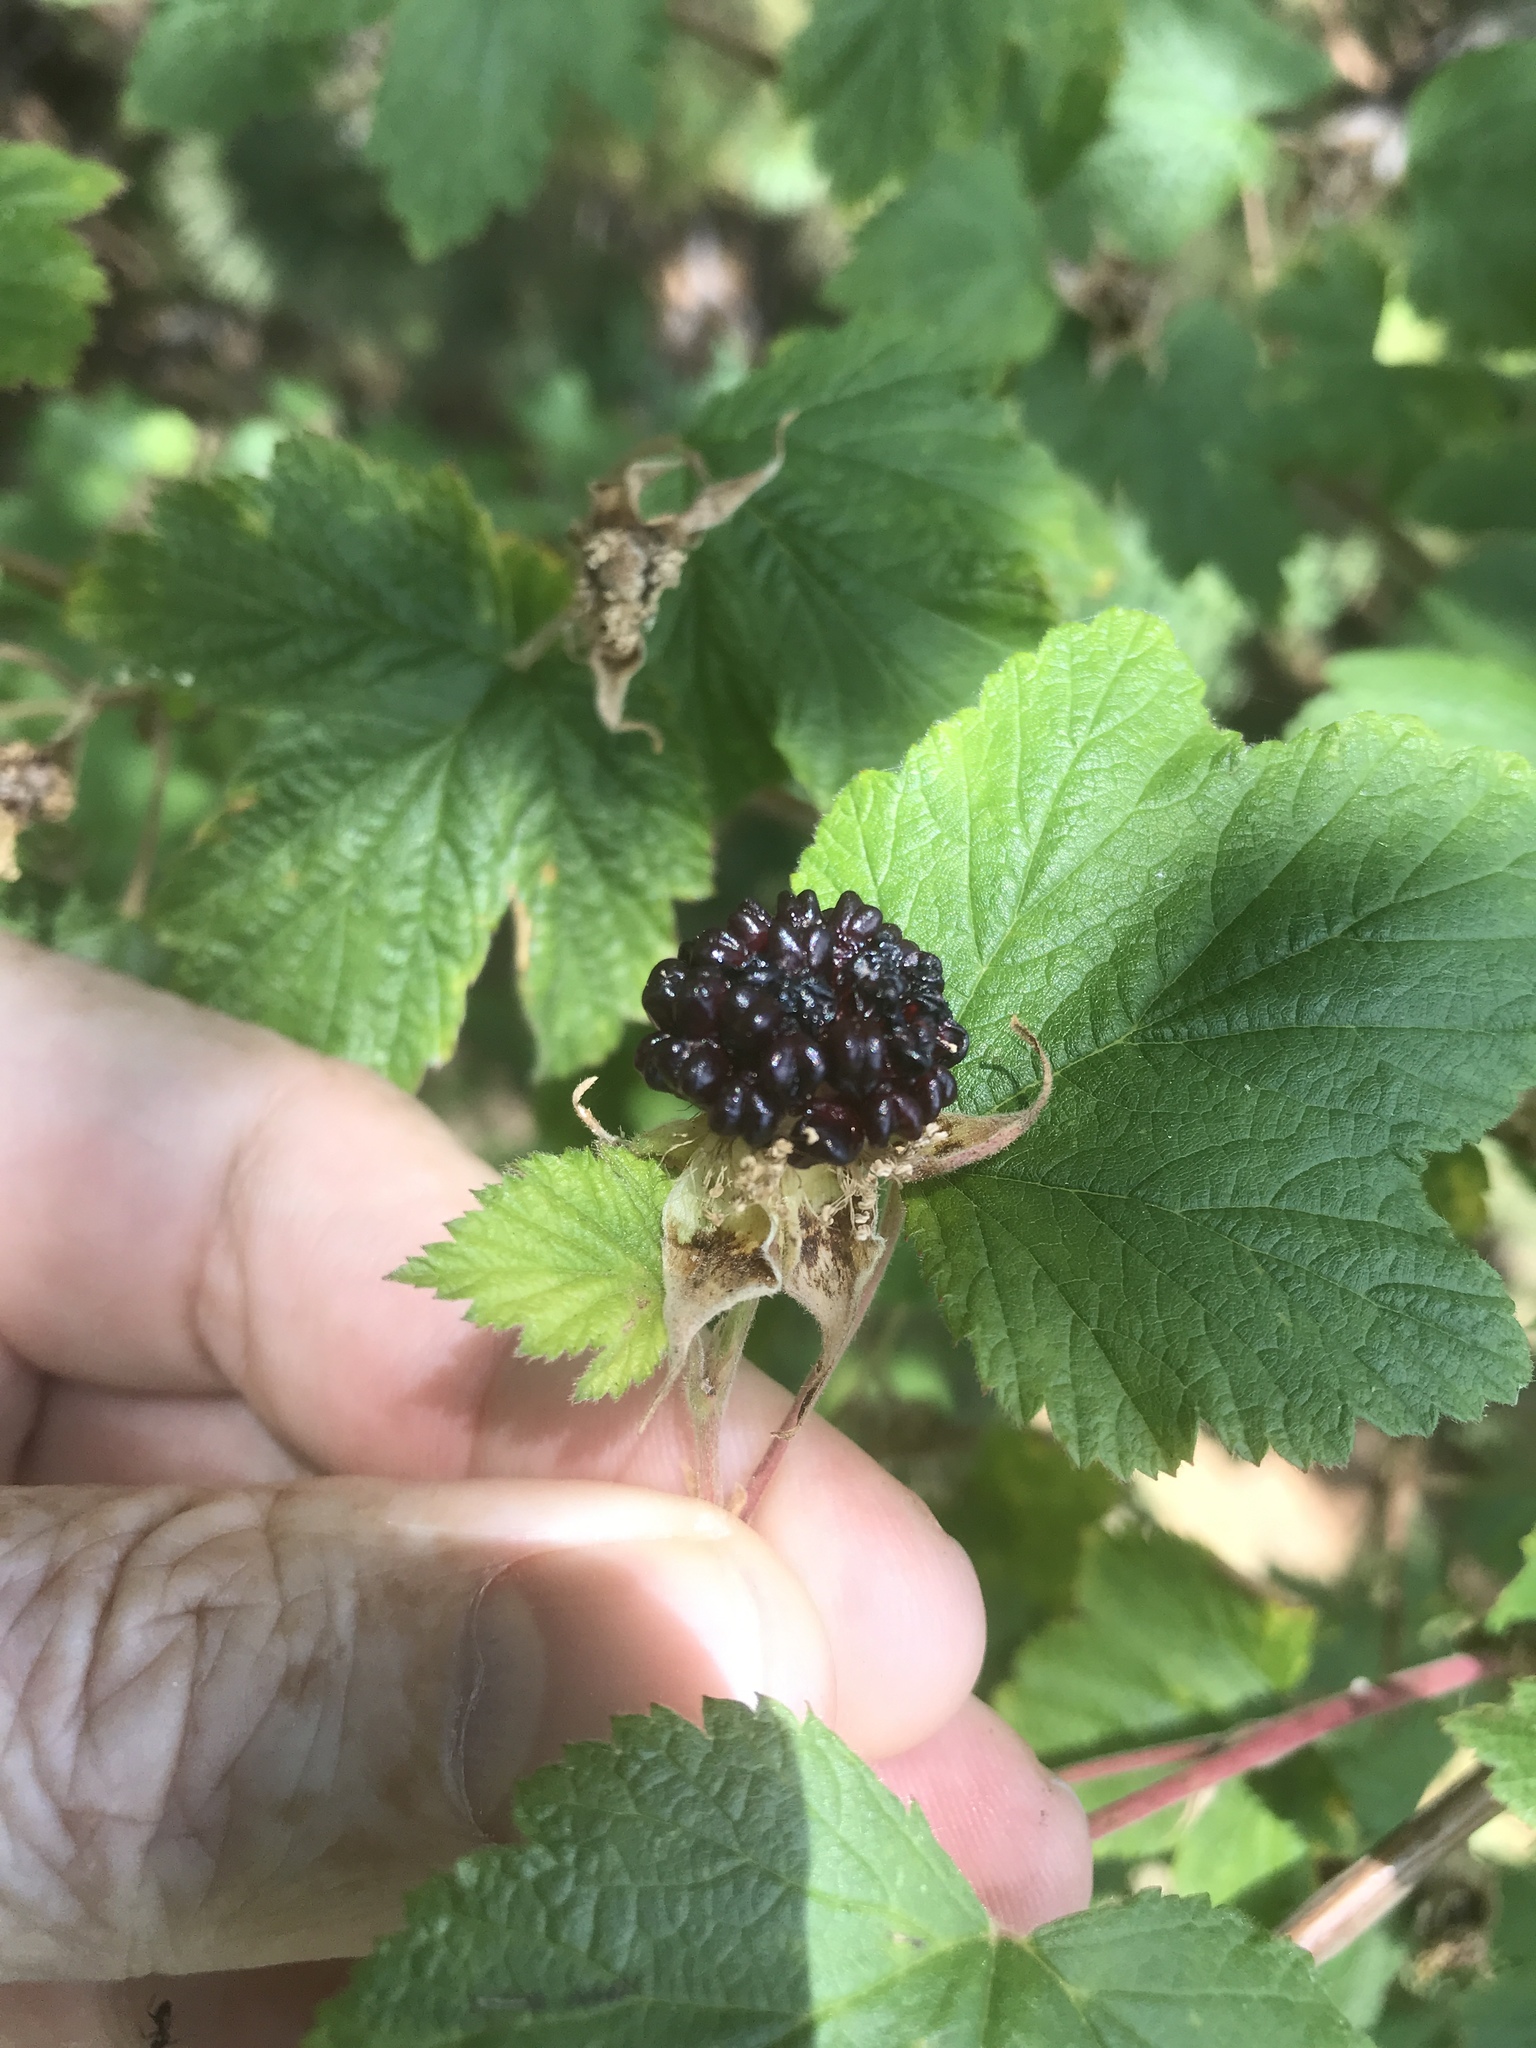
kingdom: Plantae
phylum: Tracheophyta
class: Magnoliopsida
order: Rosales
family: Rosaceae
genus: Rubus
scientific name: Rubus neomexicanus
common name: New mexico raspberry
